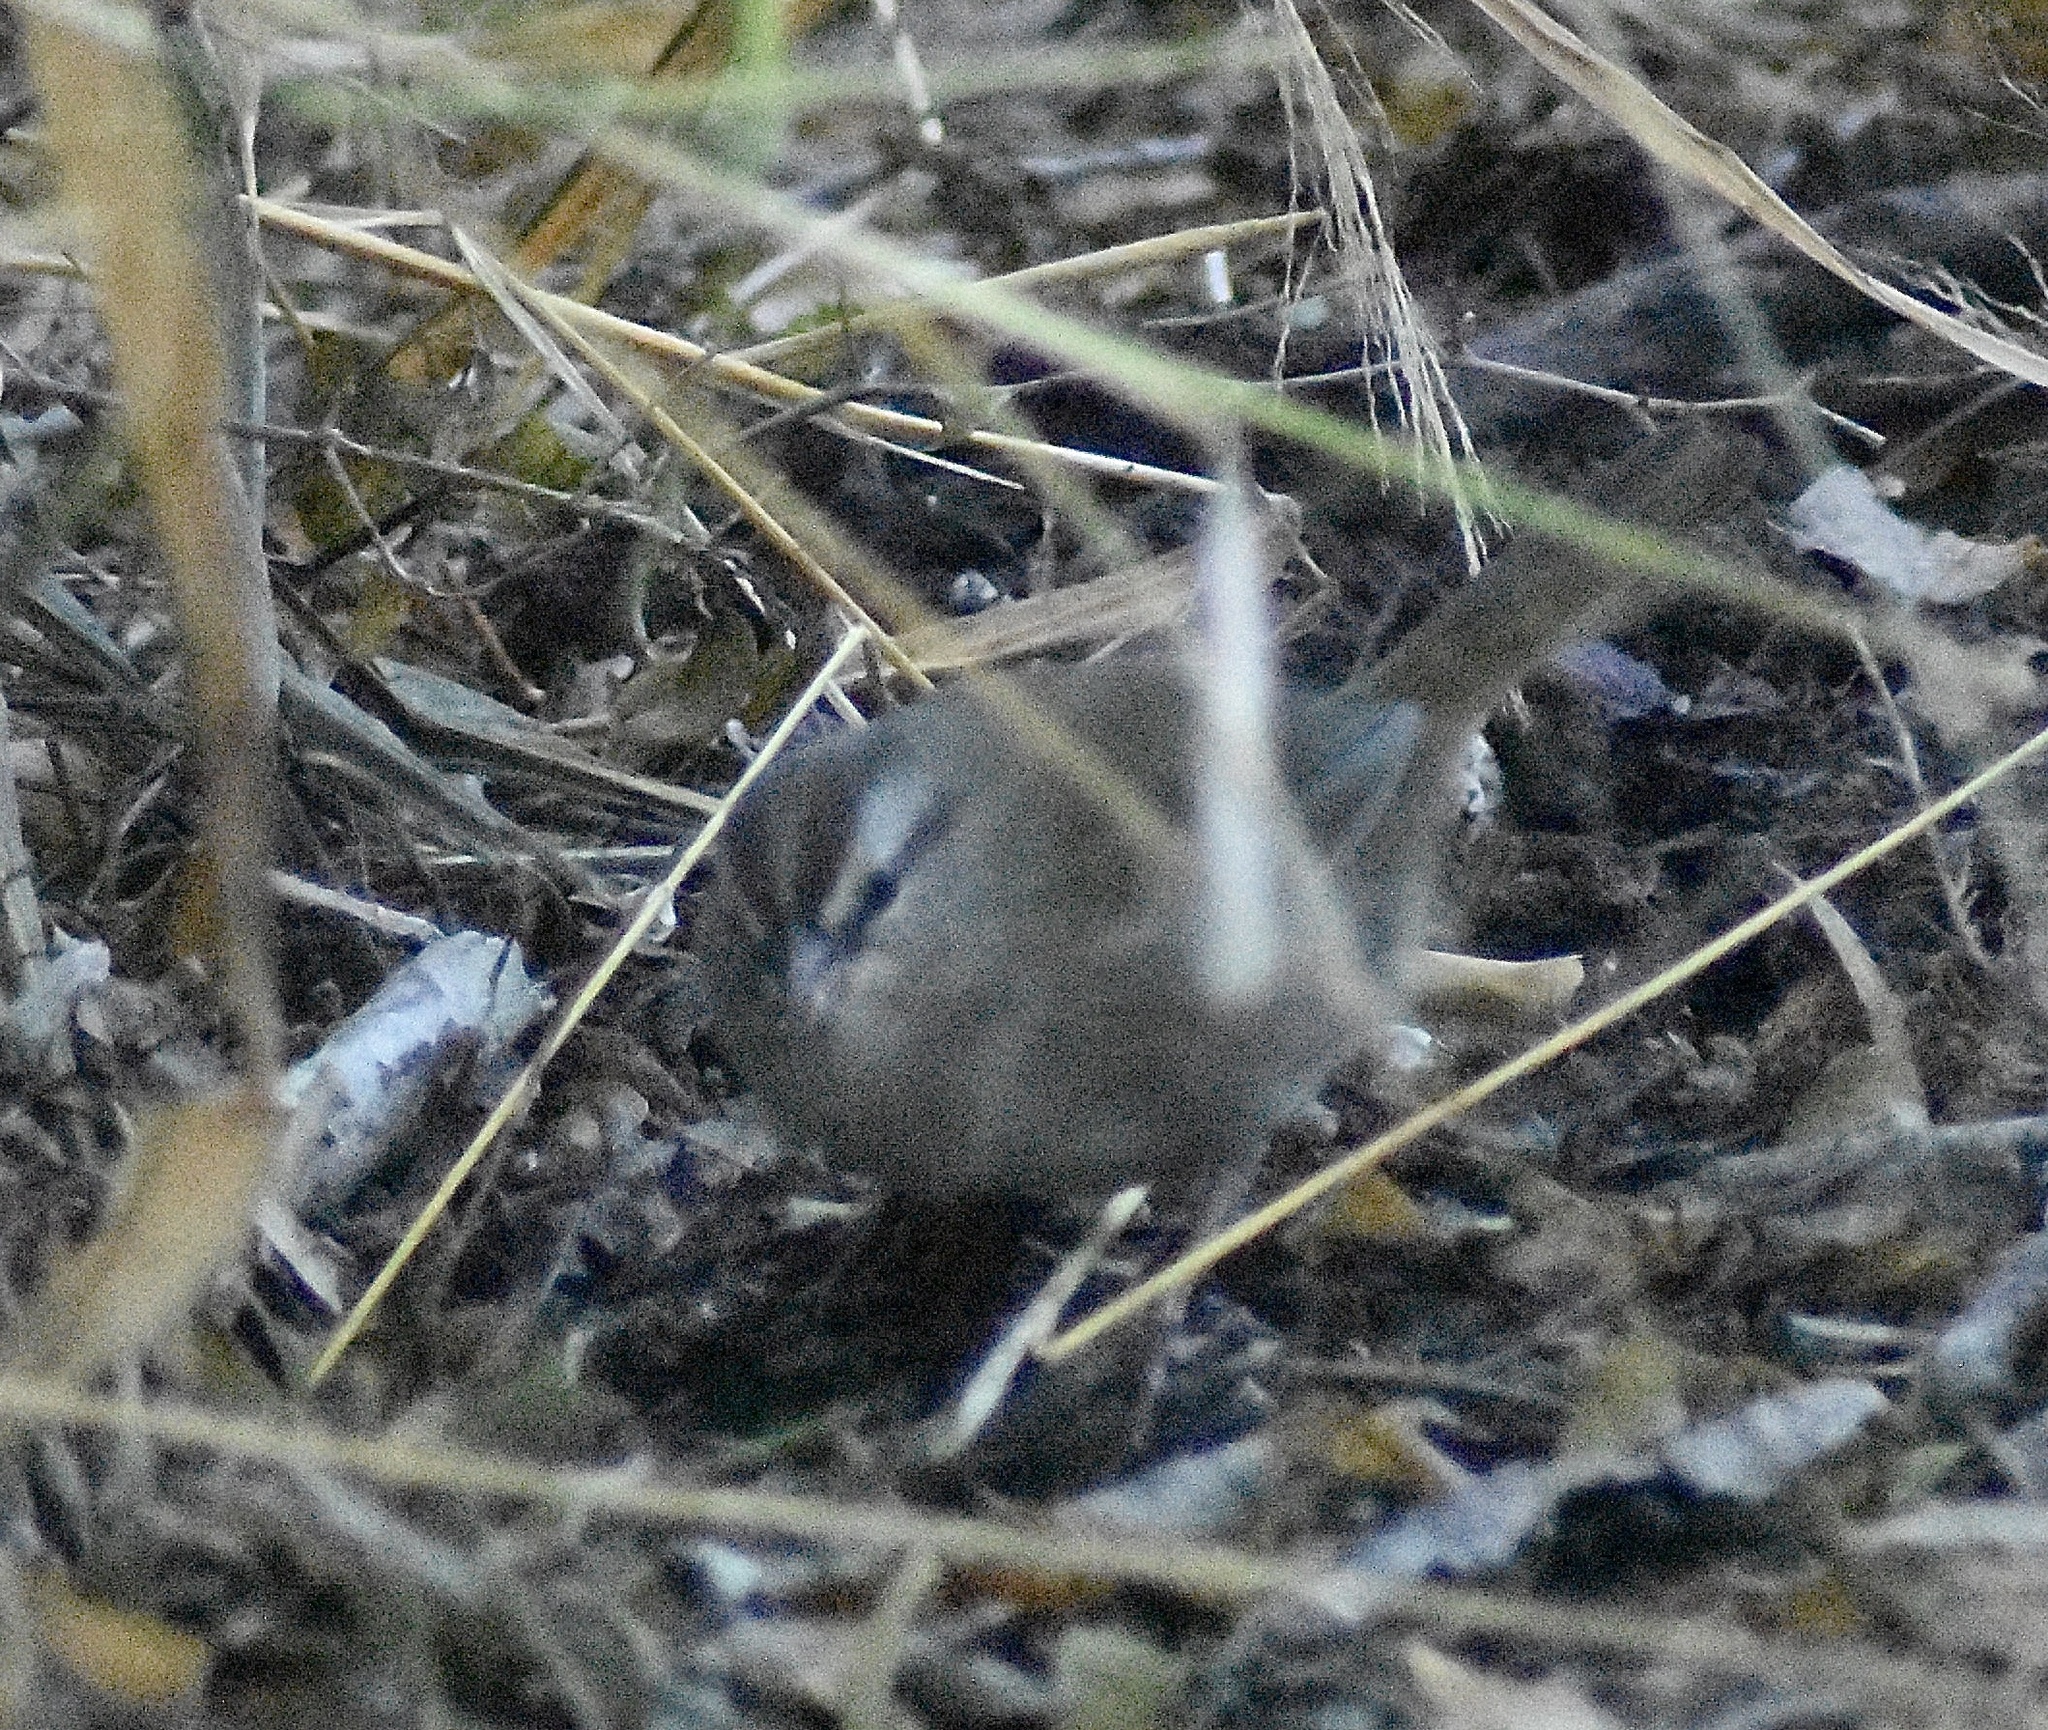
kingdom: Animalia
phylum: Chordata
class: Aves
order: Passeriformes
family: Passerellidae
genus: Arremonops
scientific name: Arremonops rufivirgatus
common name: Olive sparrow
